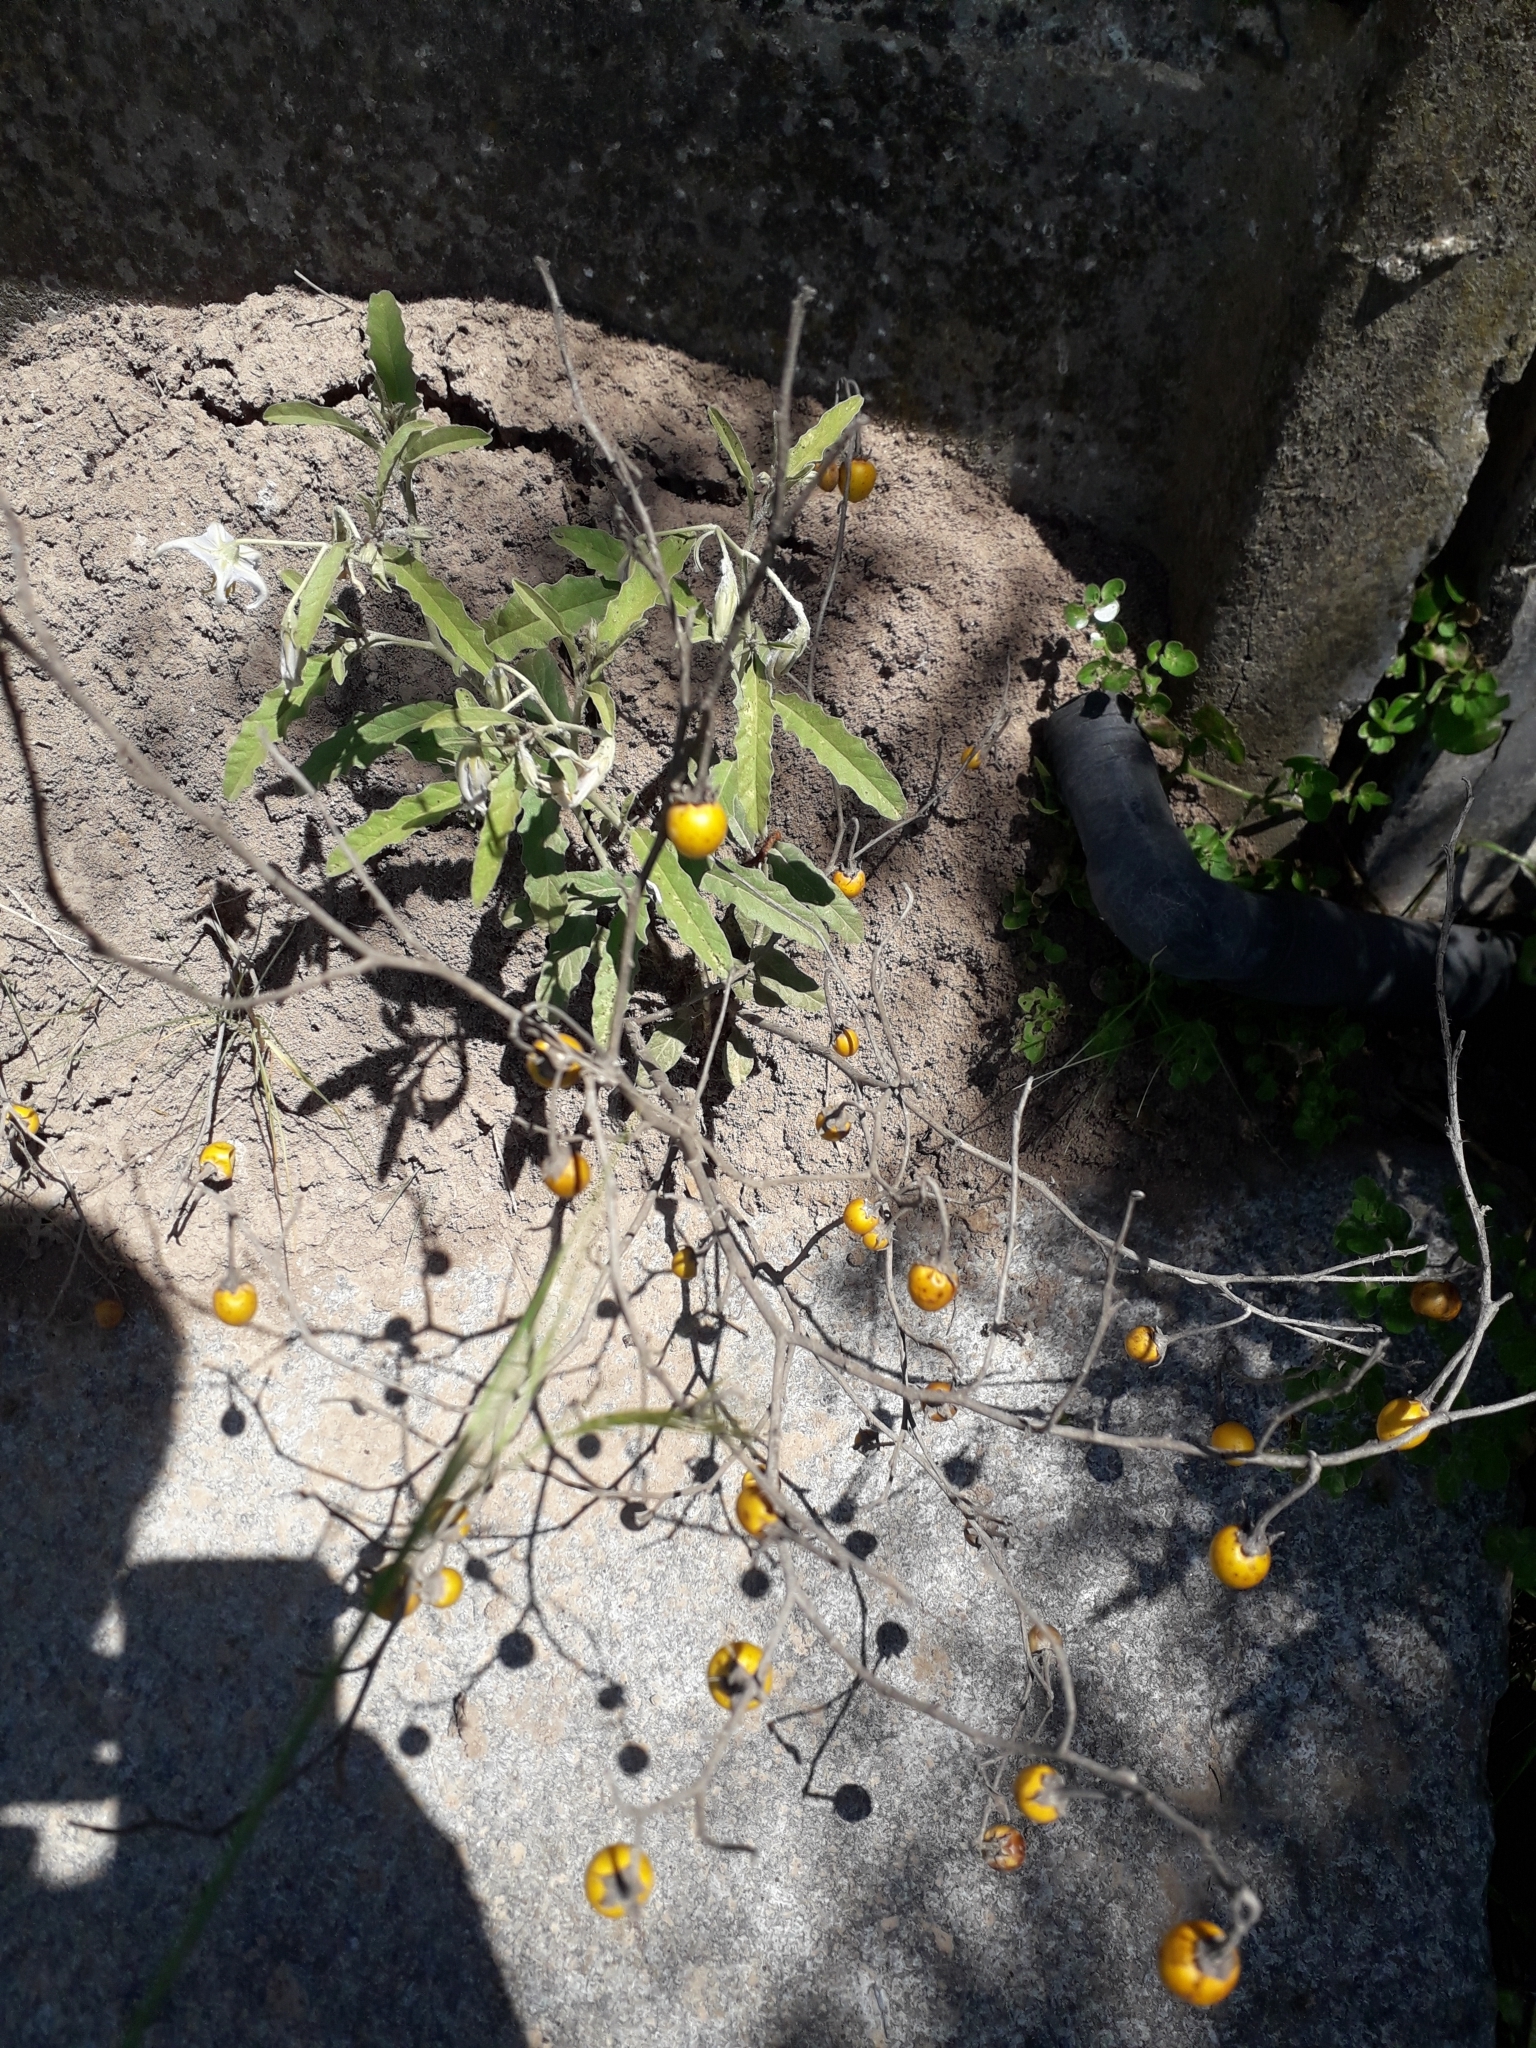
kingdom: Plantae
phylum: Tracheophyta
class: Magnoliopsida
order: Solanales
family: Solanaceae
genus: Solanum
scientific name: Solanum elaeagnifolium
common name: Silverleaf nightshade
